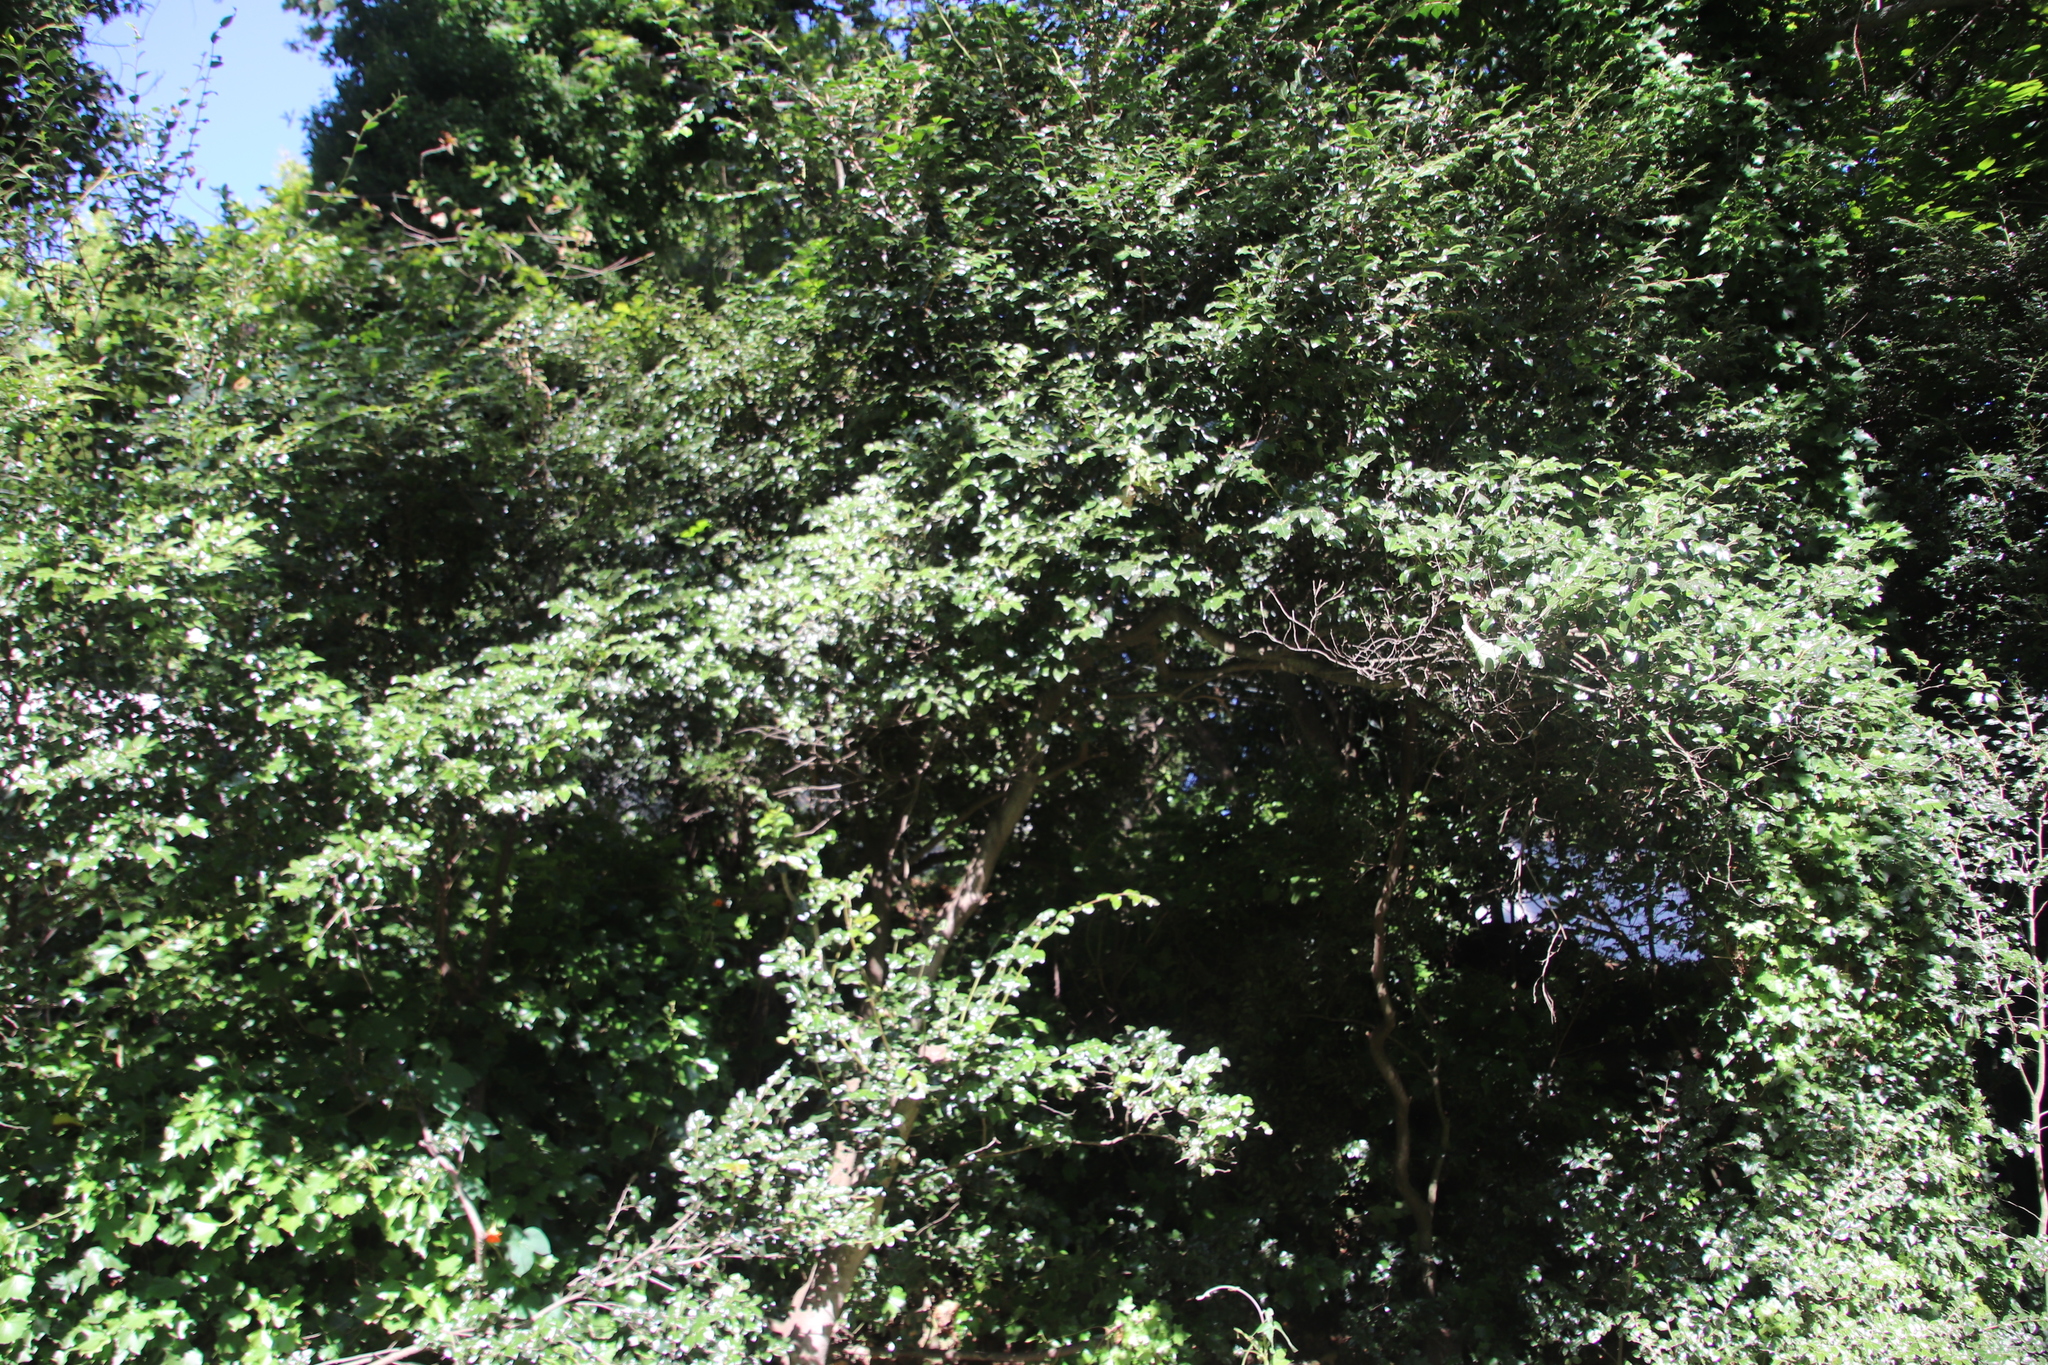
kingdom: Plantae
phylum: Tracheophyta
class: Magnoliopsida
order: Ericales
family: Ebenaceae
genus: Diospyros
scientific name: Diospyros whyteana
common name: Bladder-nut
